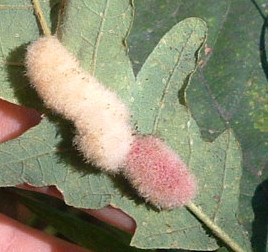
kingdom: Animalia
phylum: Arthropoda
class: Insecta
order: Diptera
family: Cecidomyiidae
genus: Macrodiplosis
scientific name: Macrodiplosis niveipila
